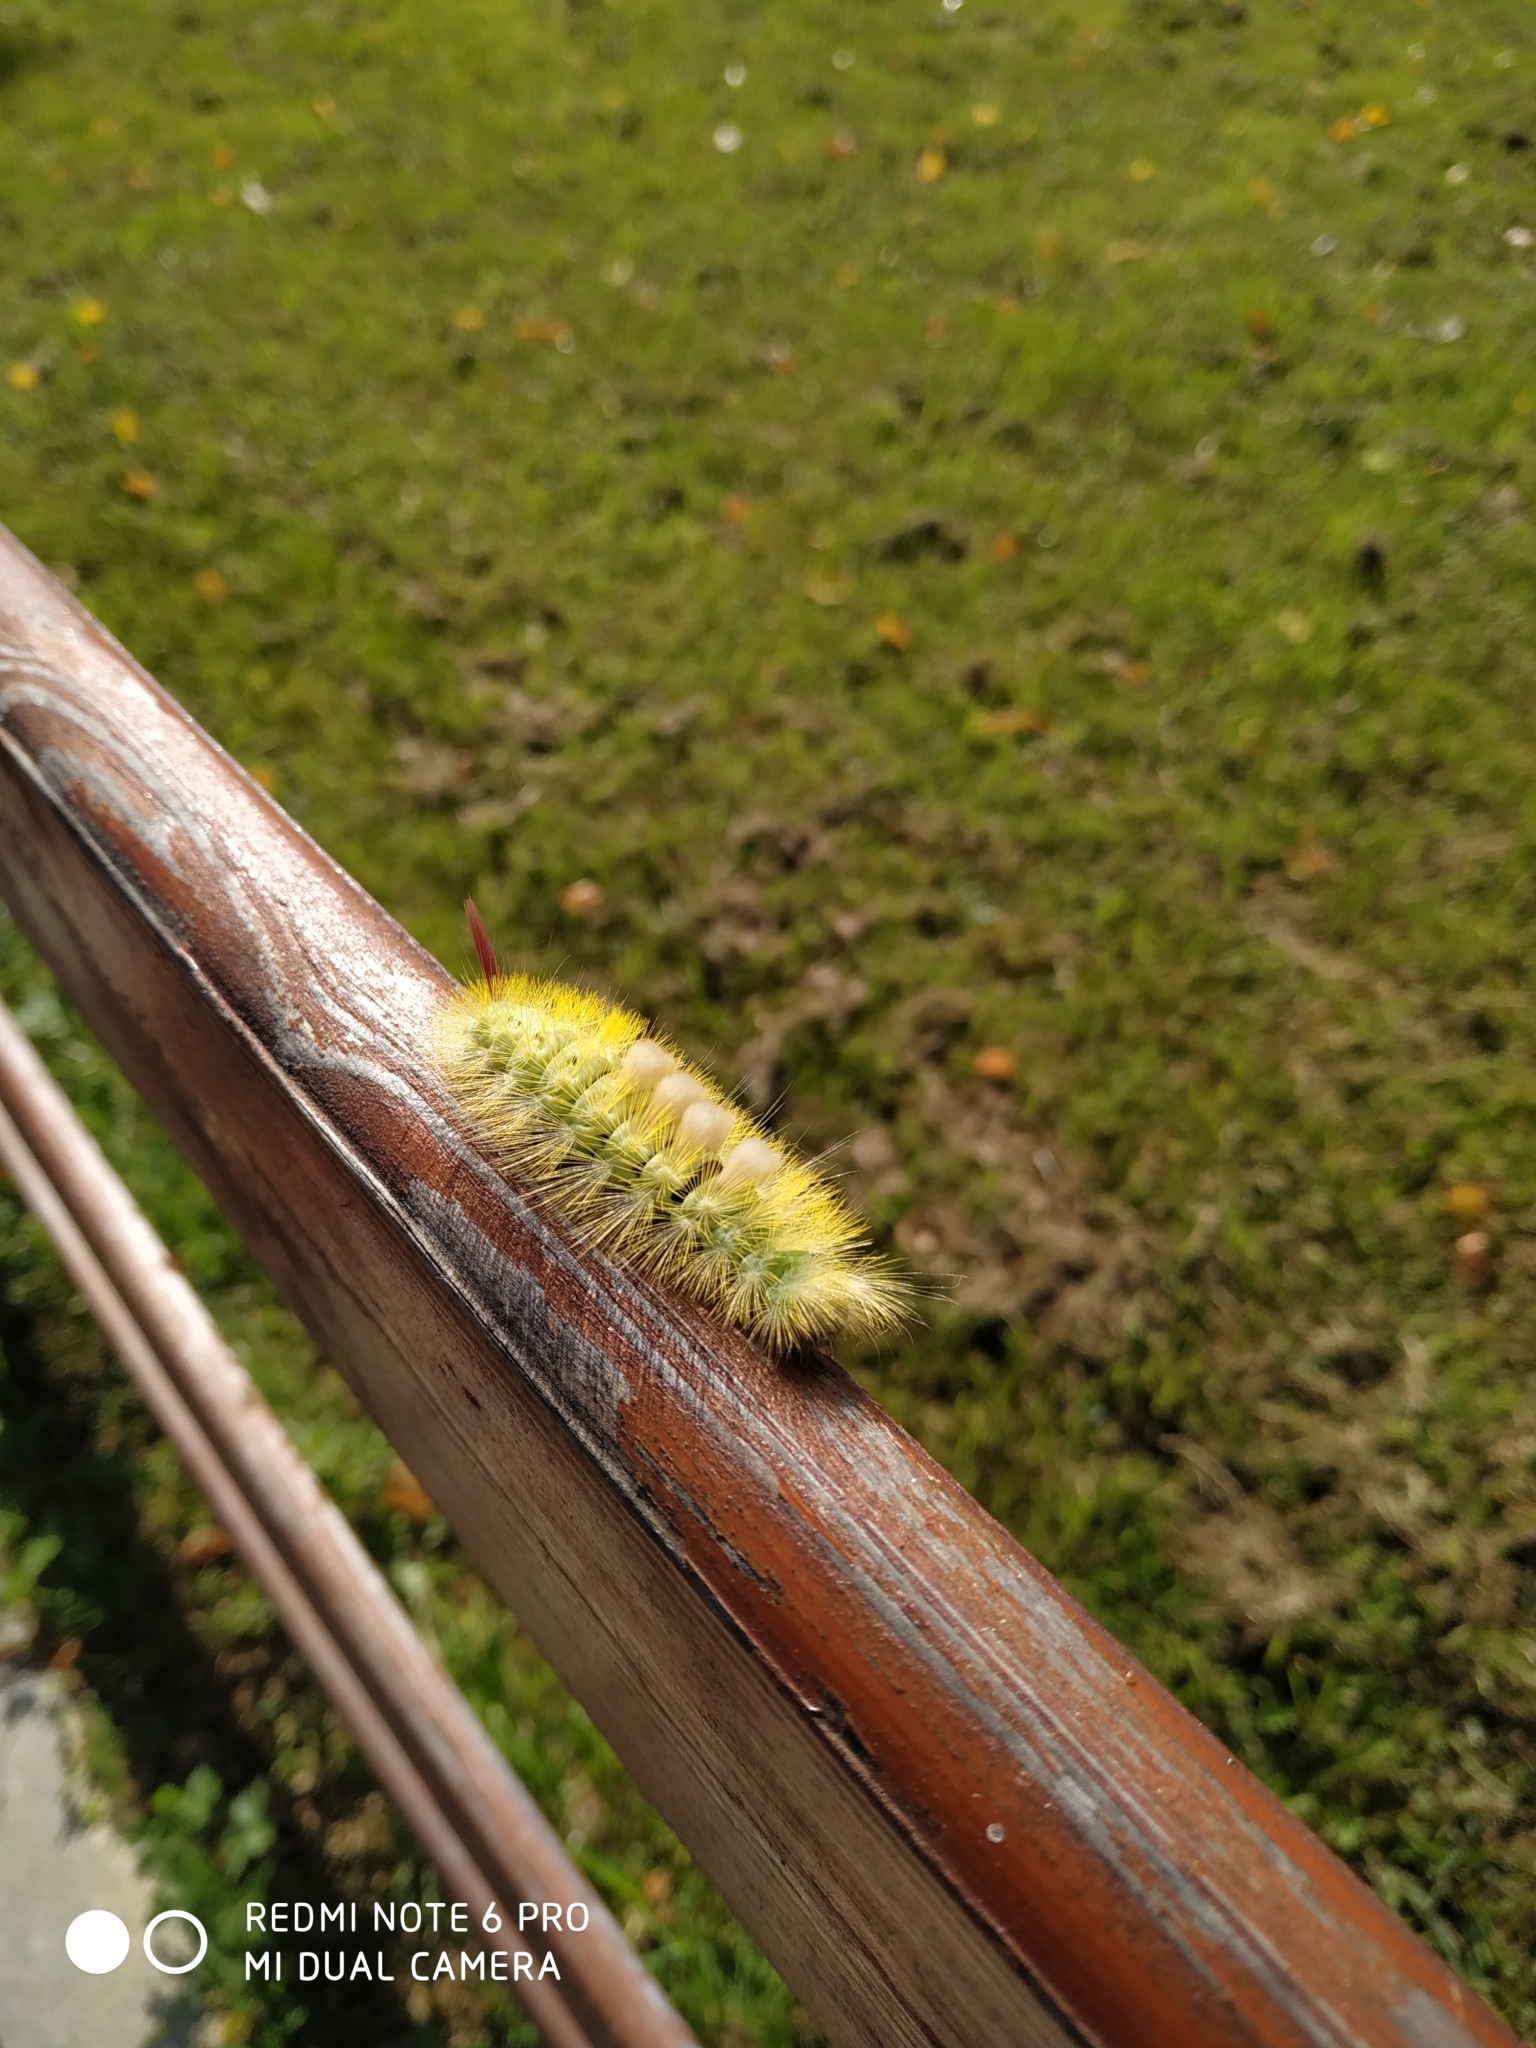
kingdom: Animalia
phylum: Arthropoda
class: Insecta
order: Lepidoptera
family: Erebidae
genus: Calliteara
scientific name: Calliteara pudibunda
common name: Pale tussock
